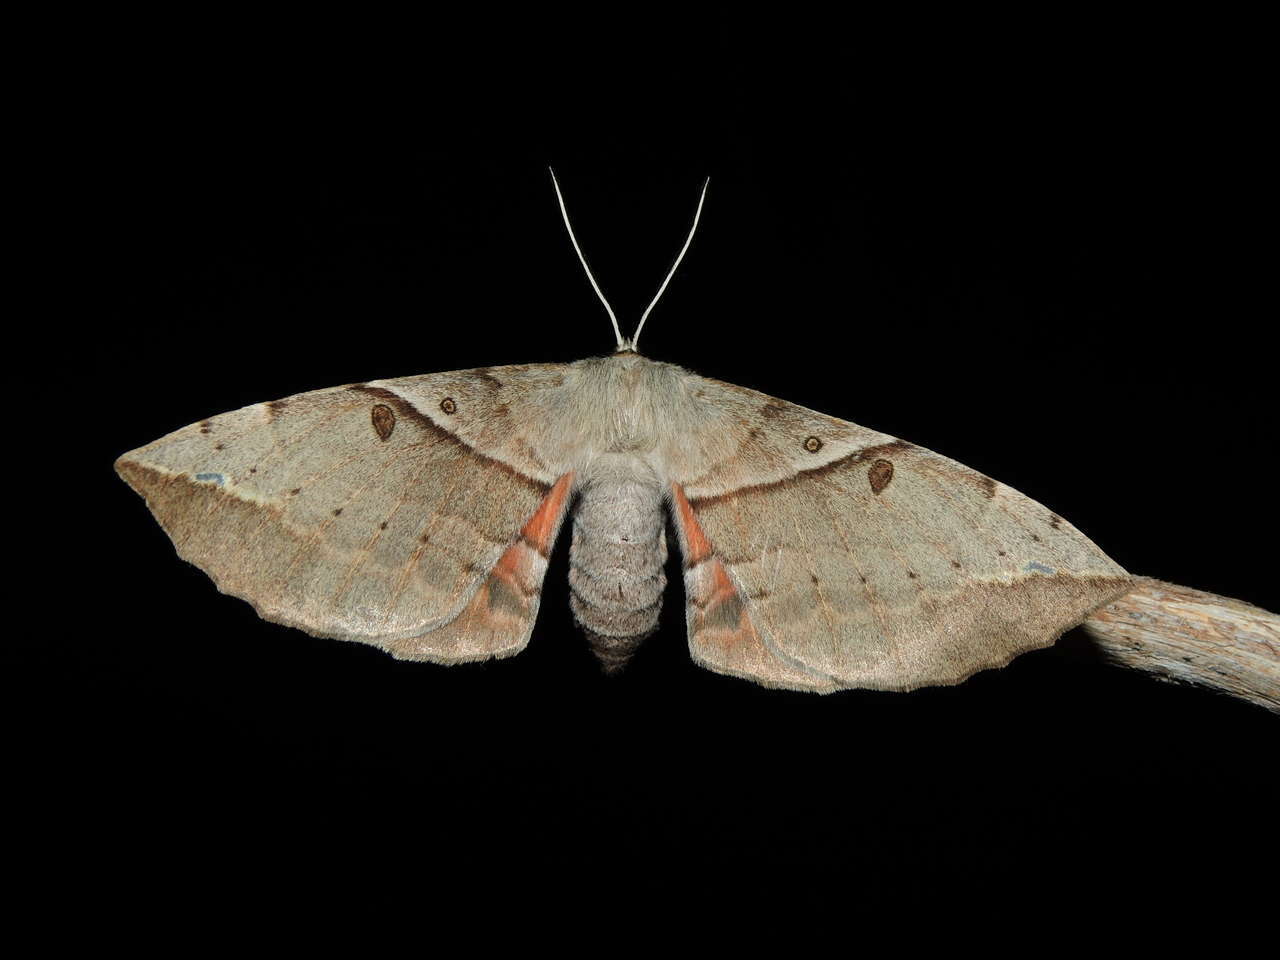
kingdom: Animalia
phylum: Arthropoda
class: Insecta
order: Lepidoptera
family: Anthelidae
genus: Chelepteryx
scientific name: Chelepteryx chalepteryx
